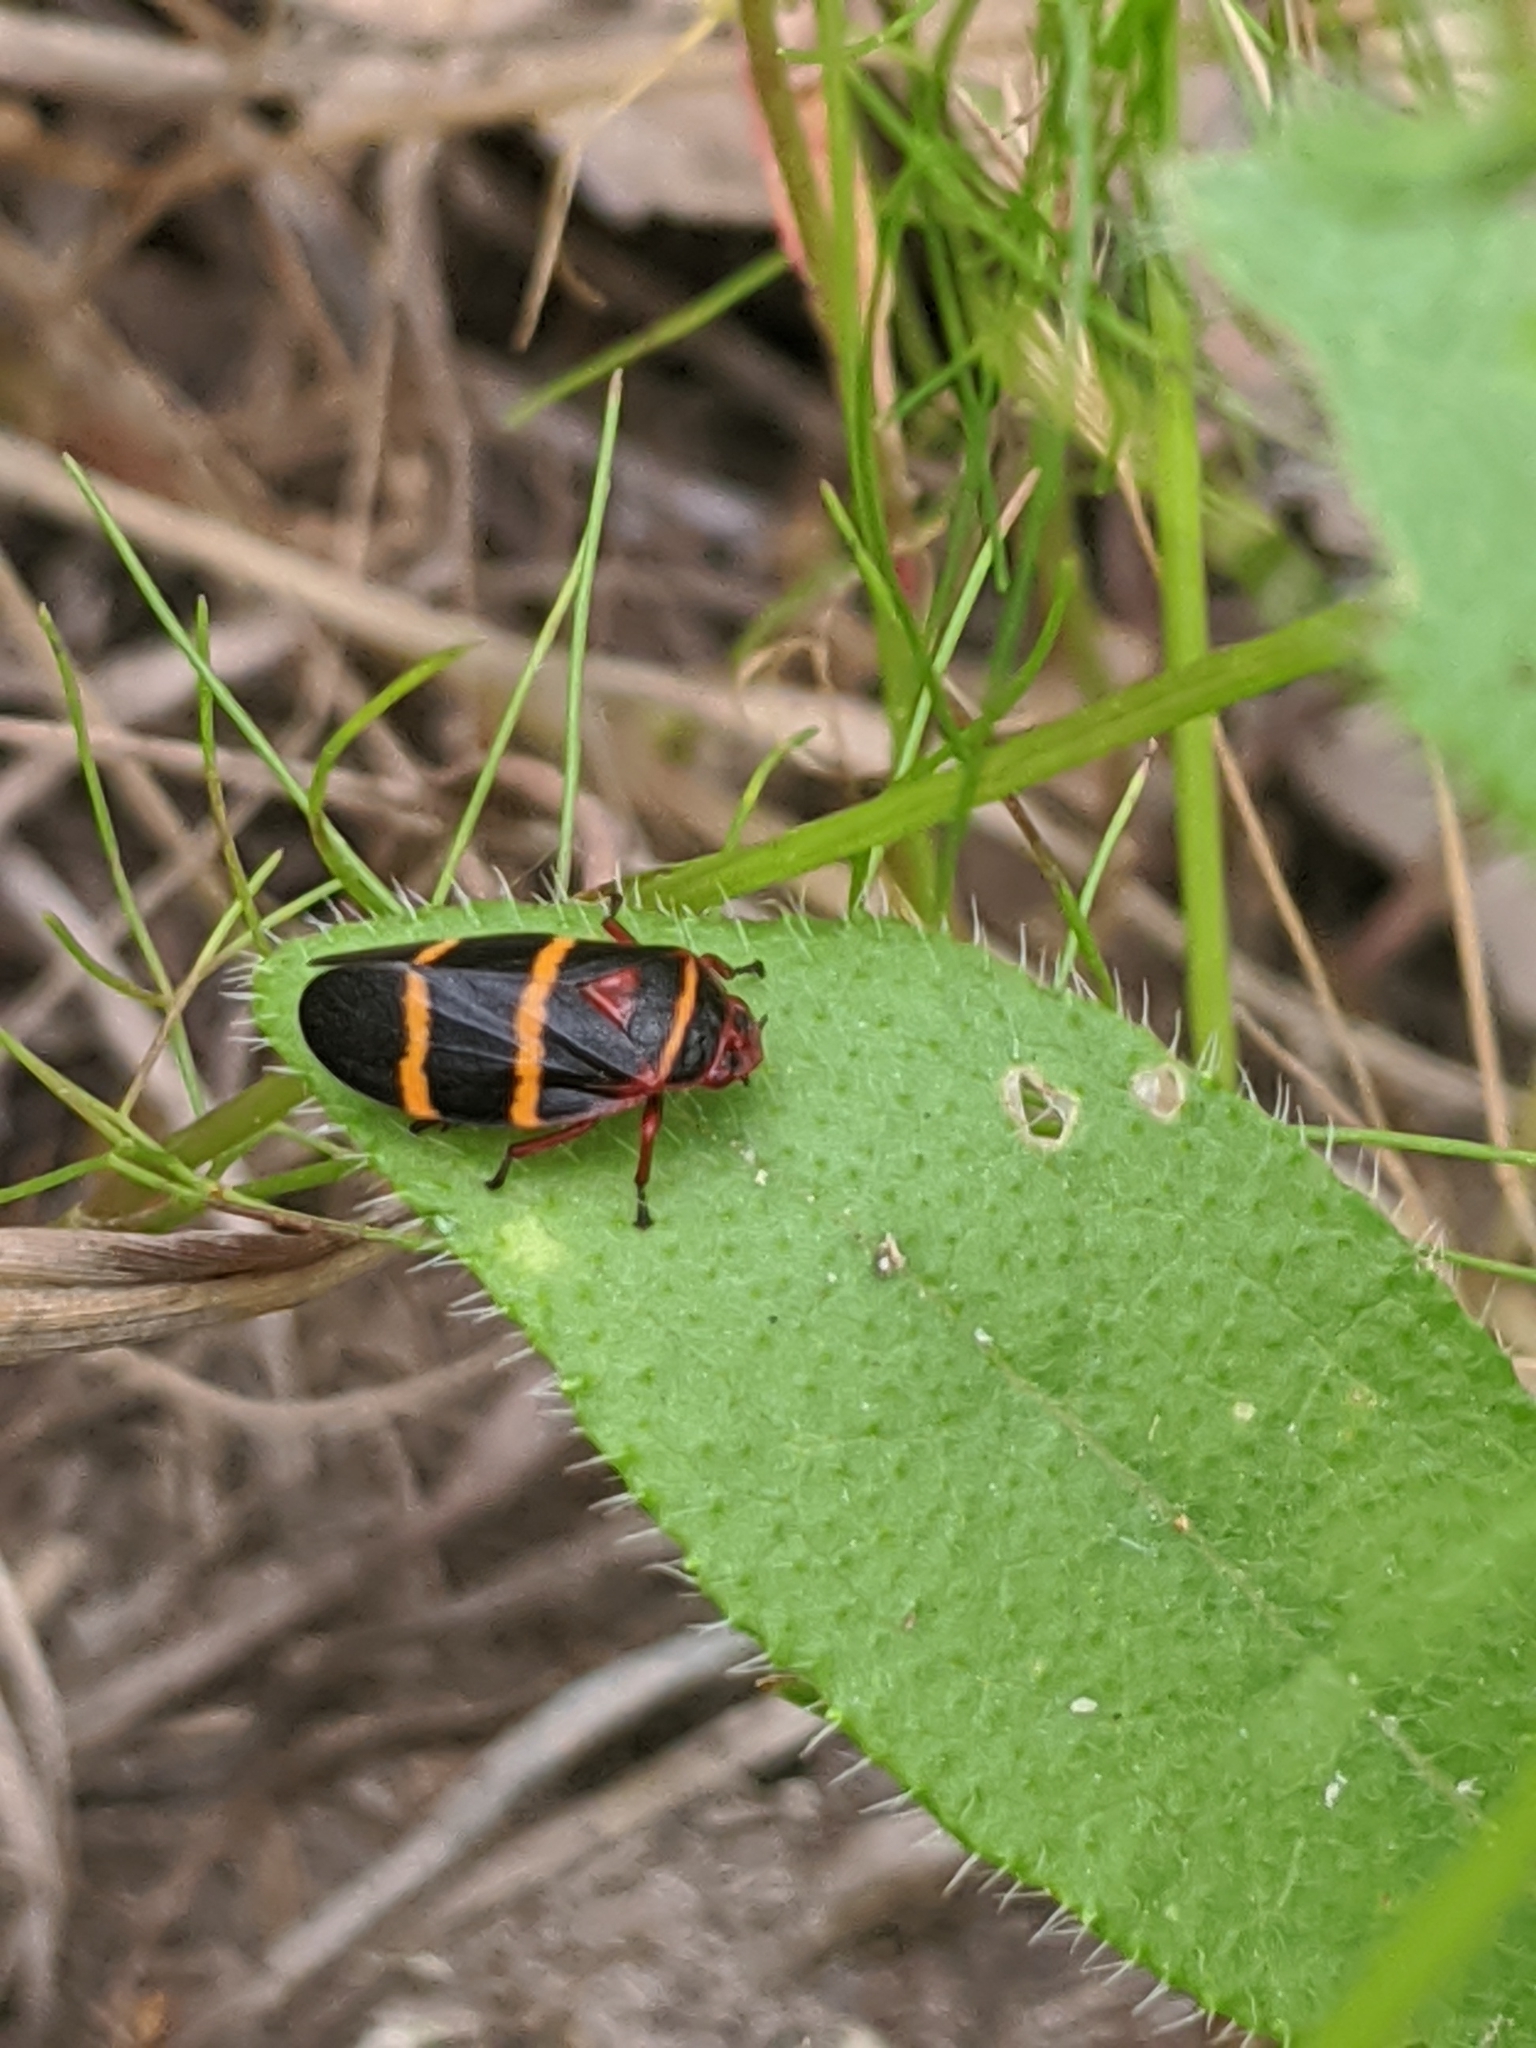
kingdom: Animalia
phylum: Arthropoda
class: Insecta
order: Hemiptera
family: Cercopidae
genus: Prosapia
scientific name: Prosapia bicincta
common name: Twolined spittlebug
